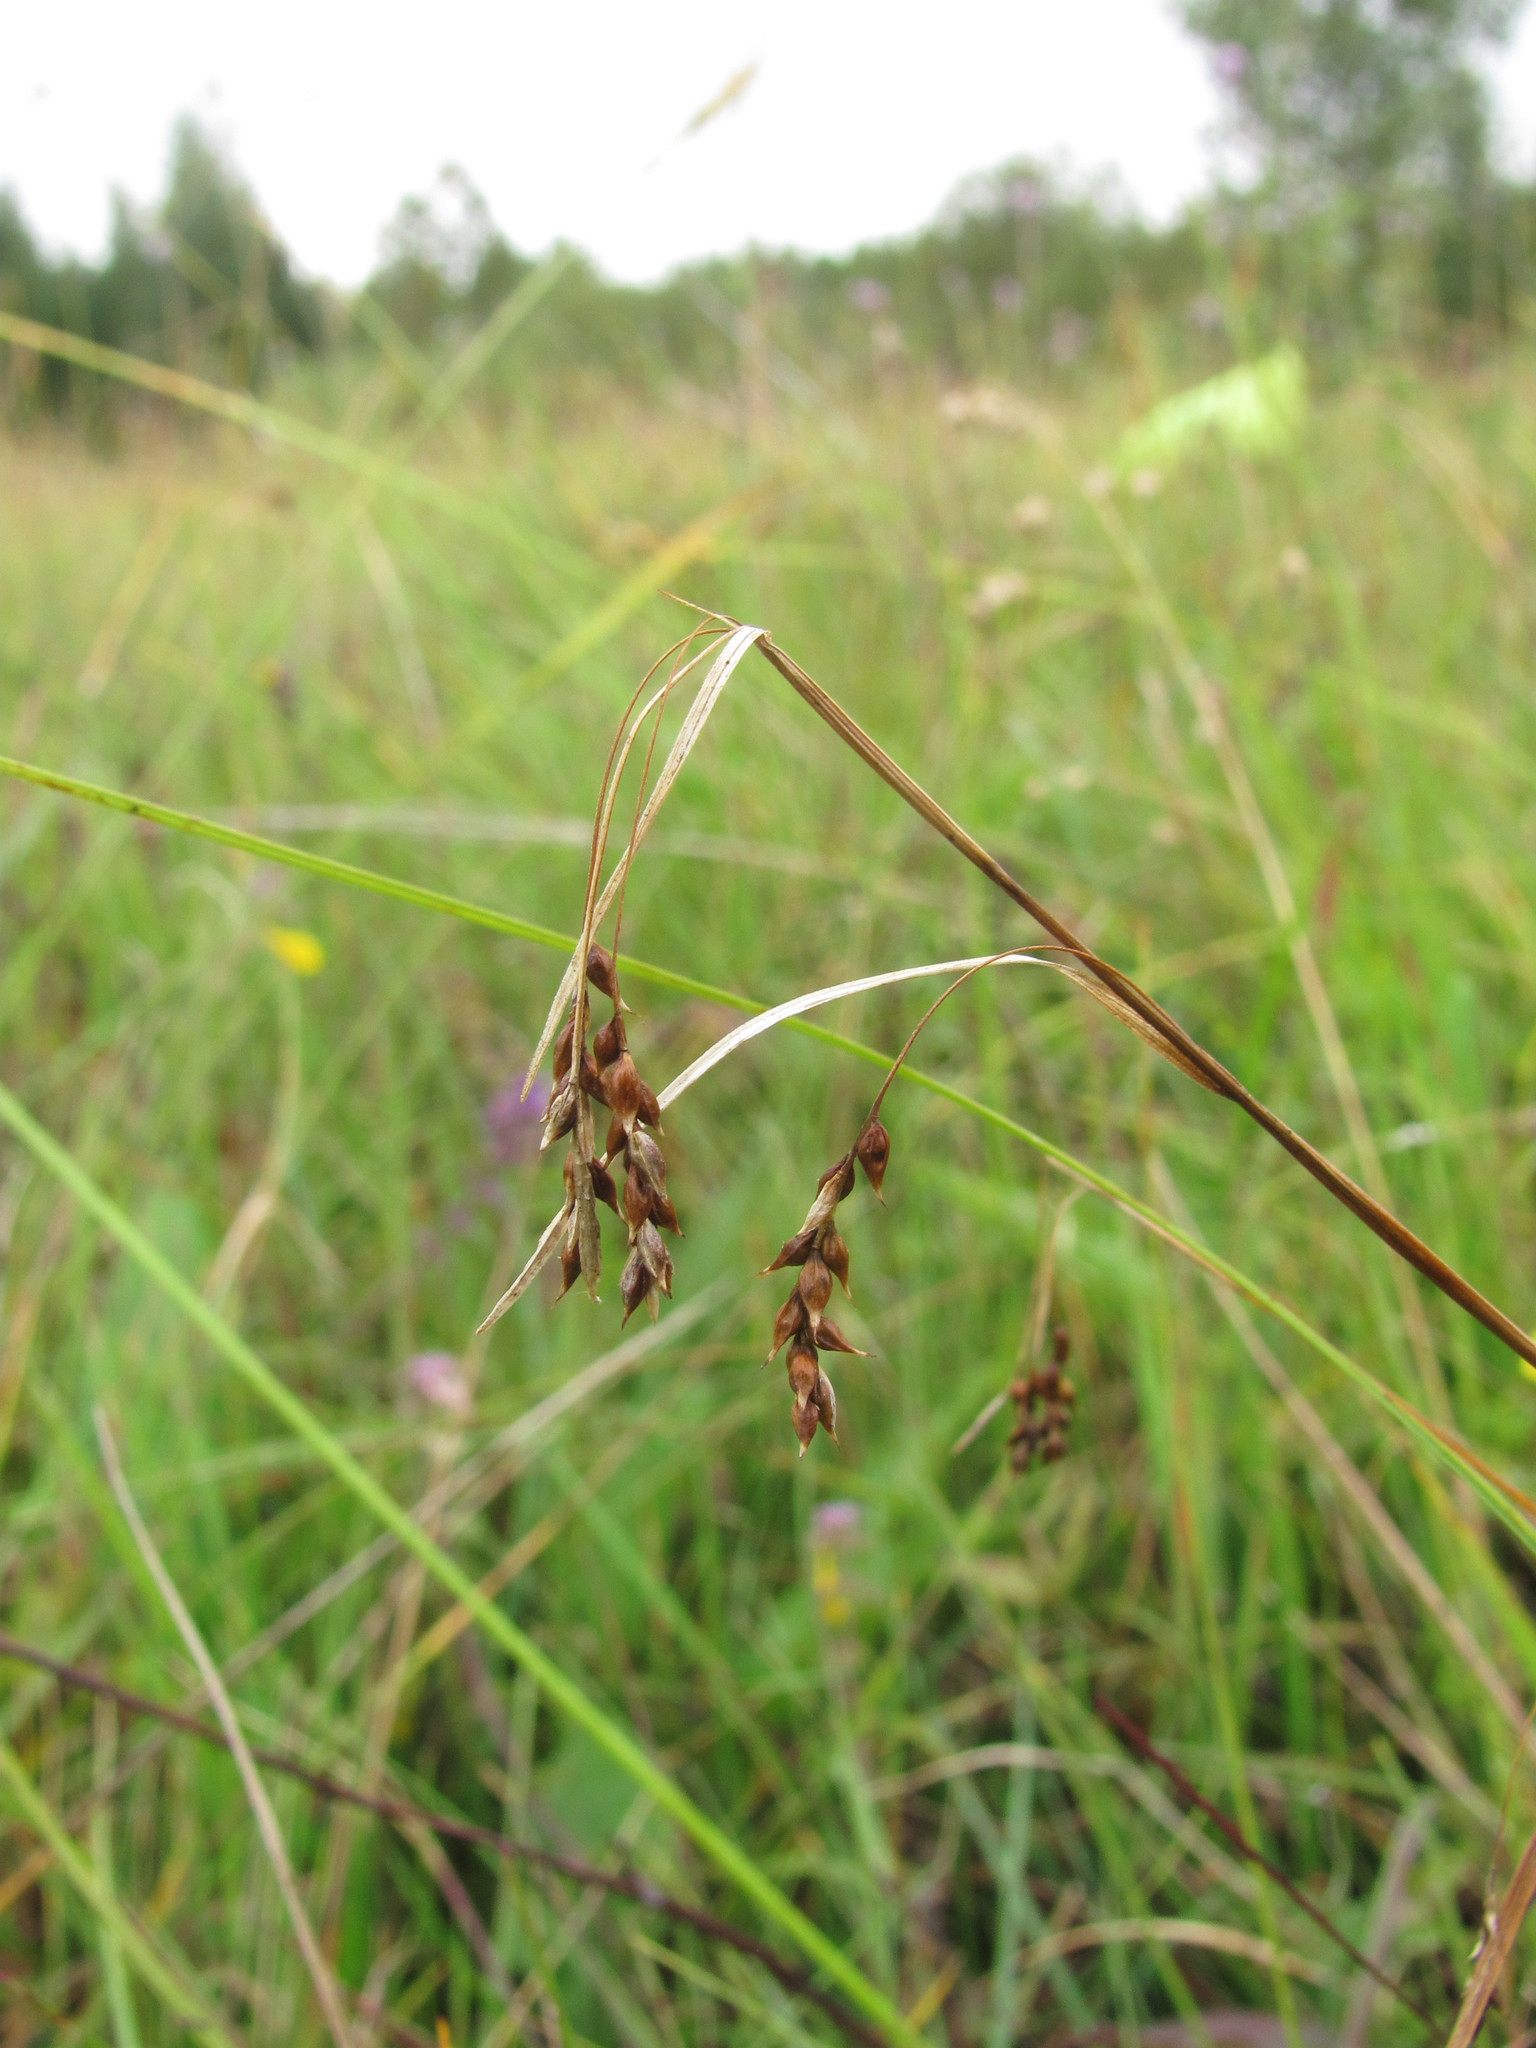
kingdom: Plantae
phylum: Tracheophyta
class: Liliopsida
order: Poales
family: Cyperaceae
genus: Carex
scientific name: Carex capillaris
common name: Hair sedge
